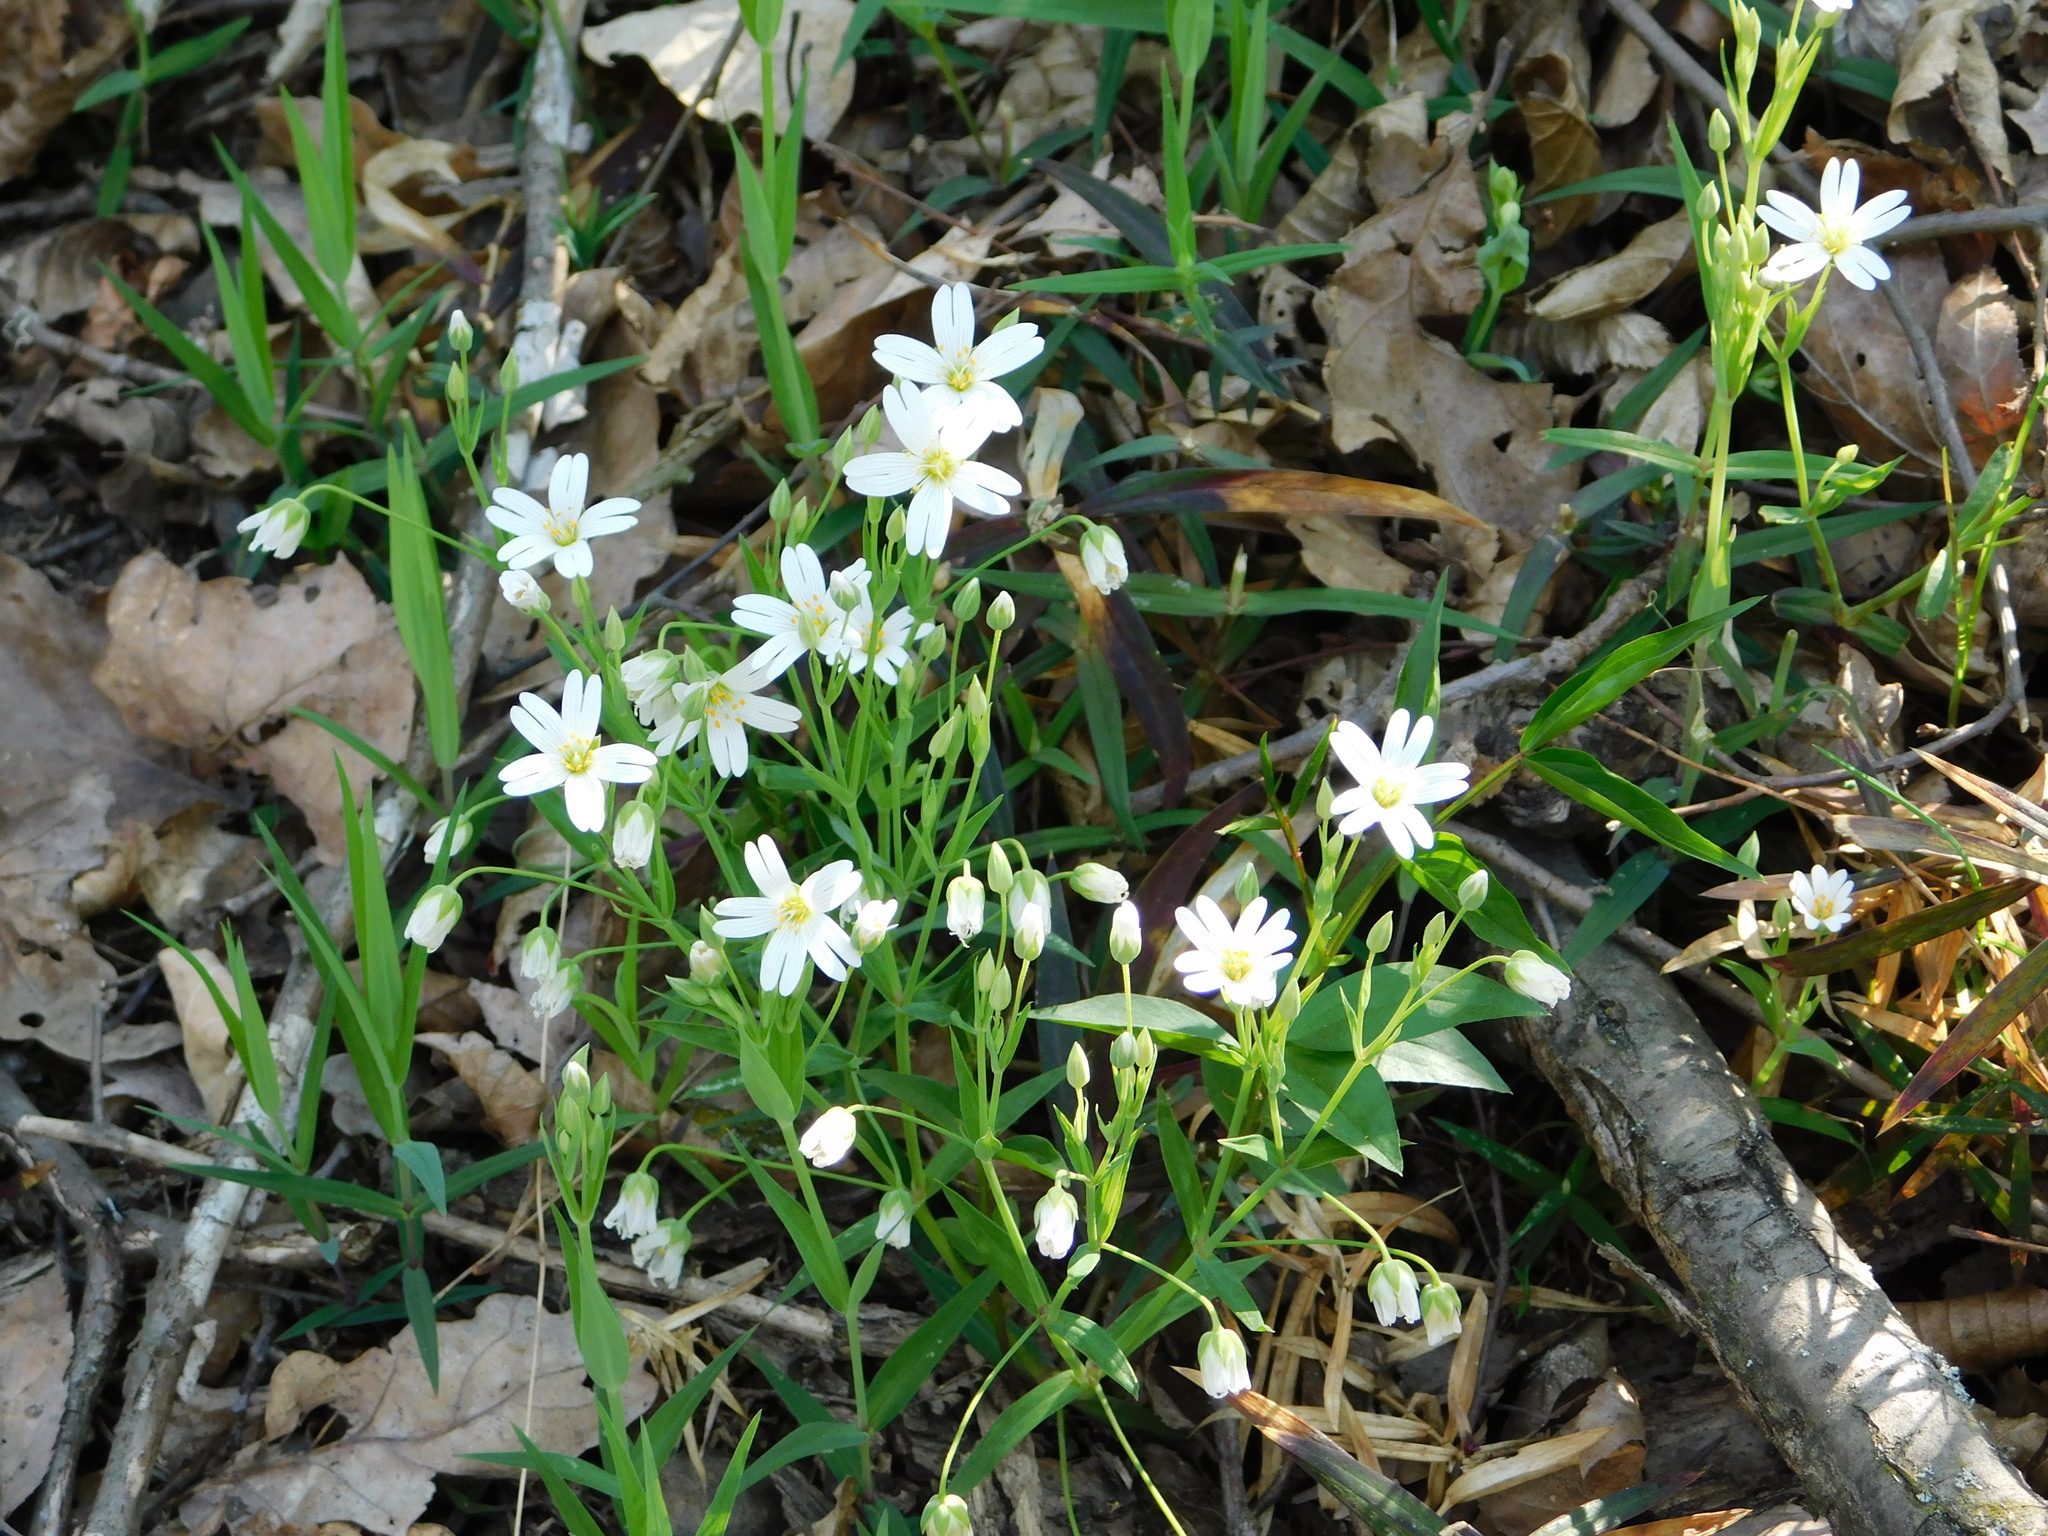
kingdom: Plantae
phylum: Tracheophyta
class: Magnoliopsida
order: Caryophyllales
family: Caryophyllaceae
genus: Rabelera
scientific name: Rabelera holostea
